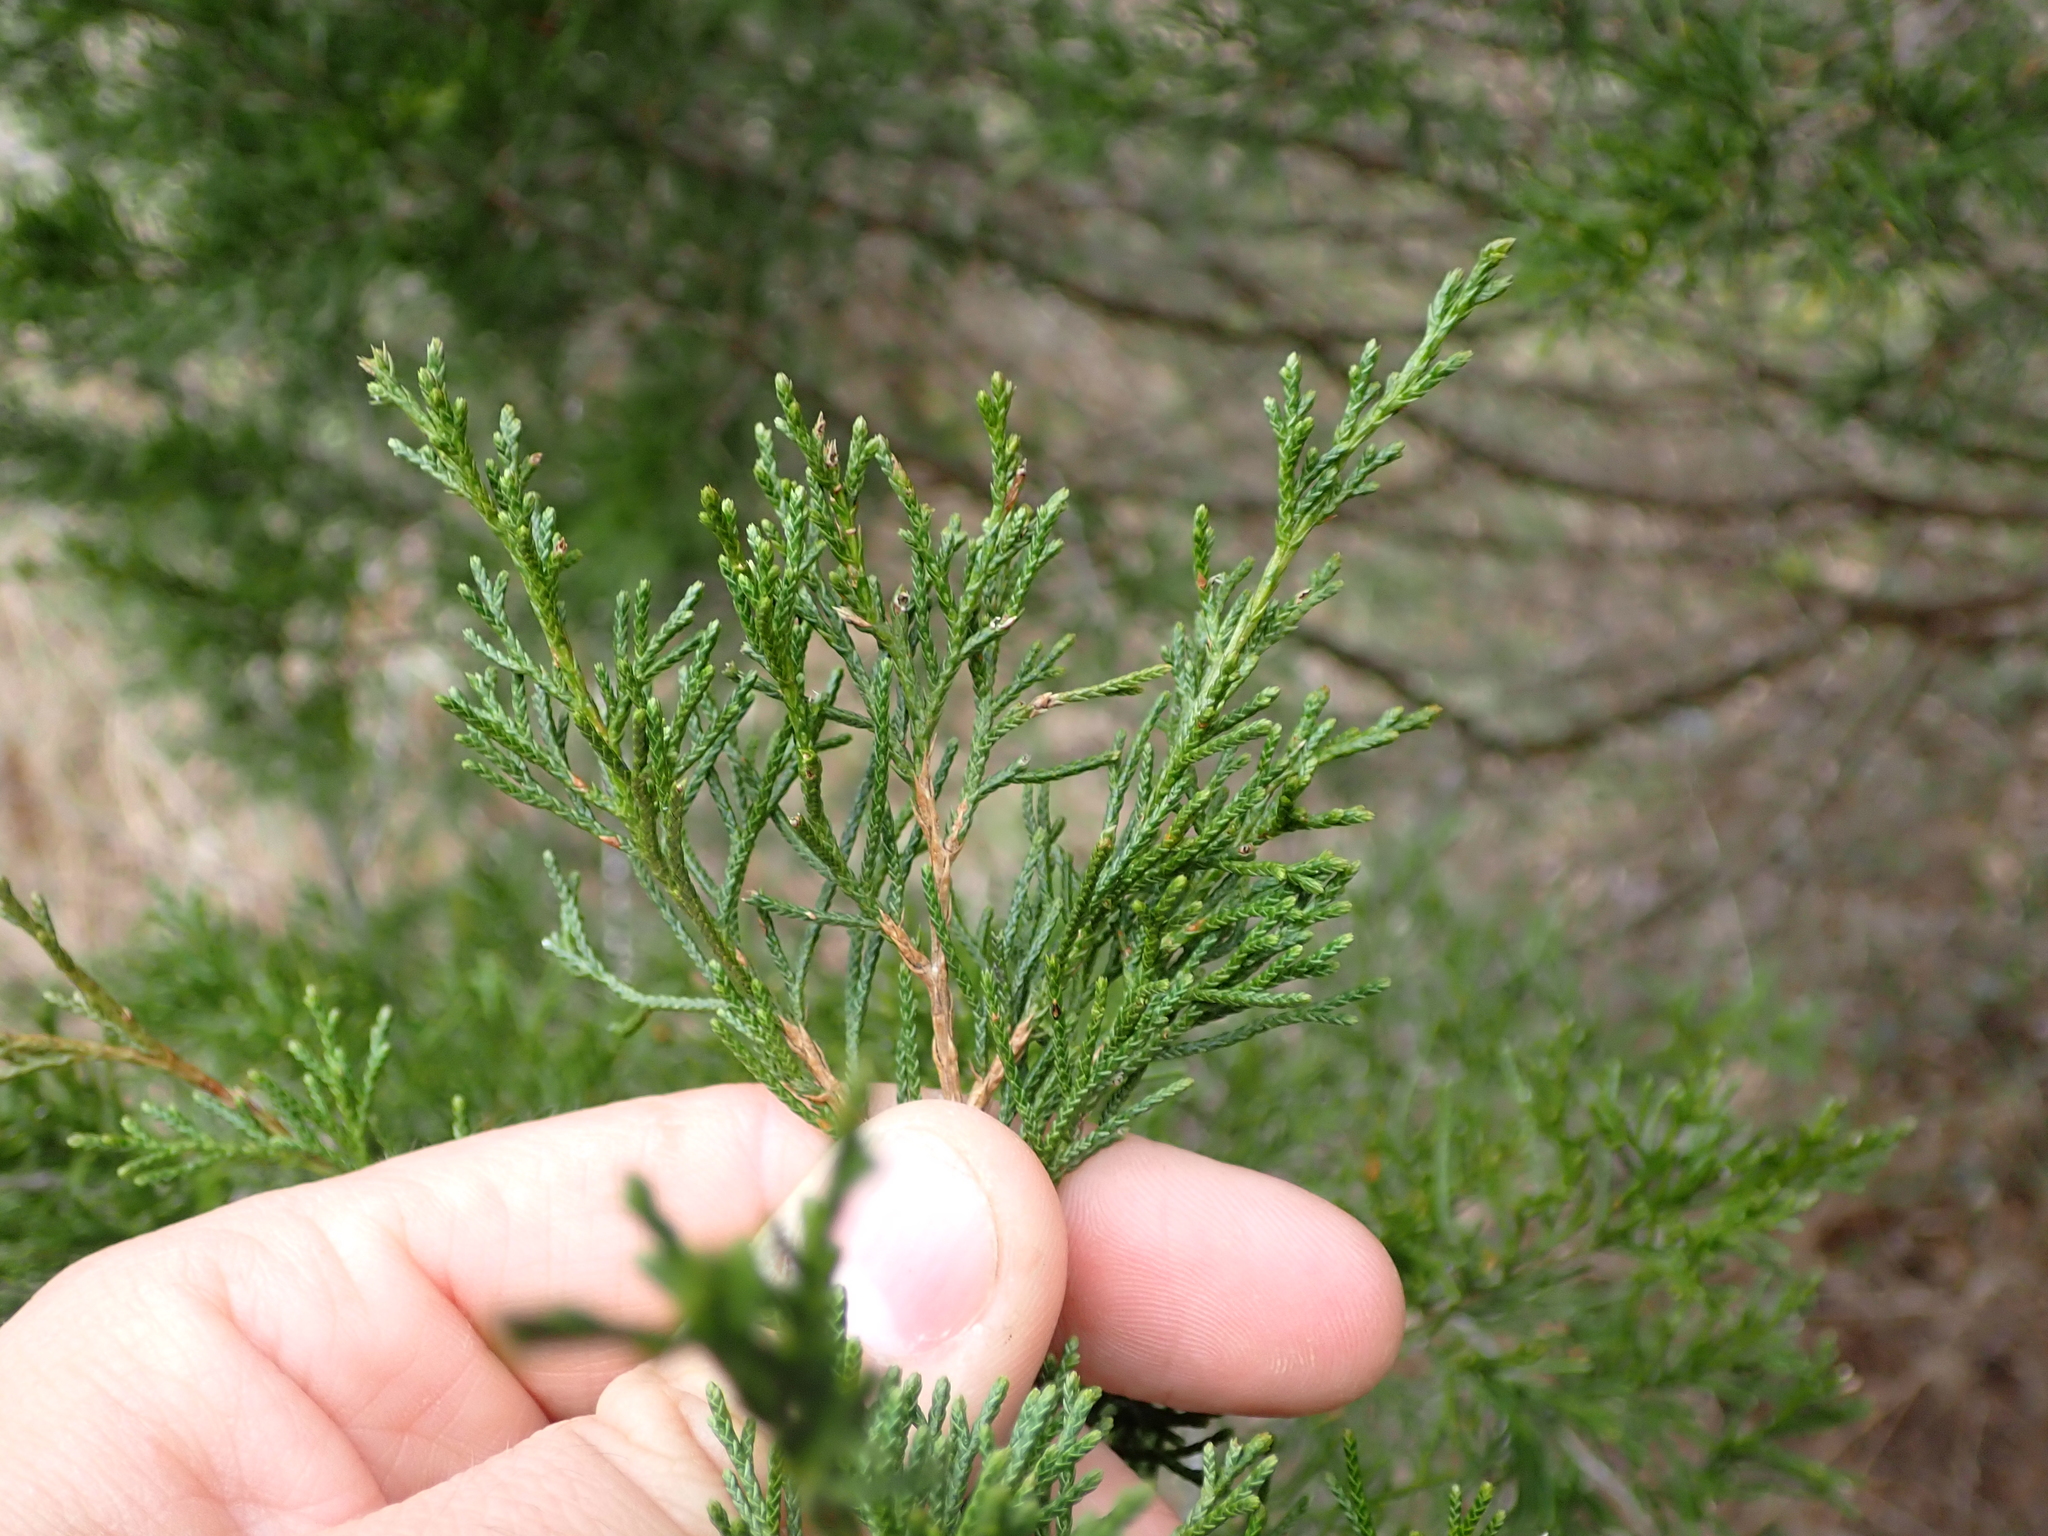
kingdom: Plantae
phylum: Tracheophyta
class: Pinopsida
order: Pinales
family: Cupressaceae
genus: Juniperus
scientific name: Juniperus virginiana
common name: Red juniper
